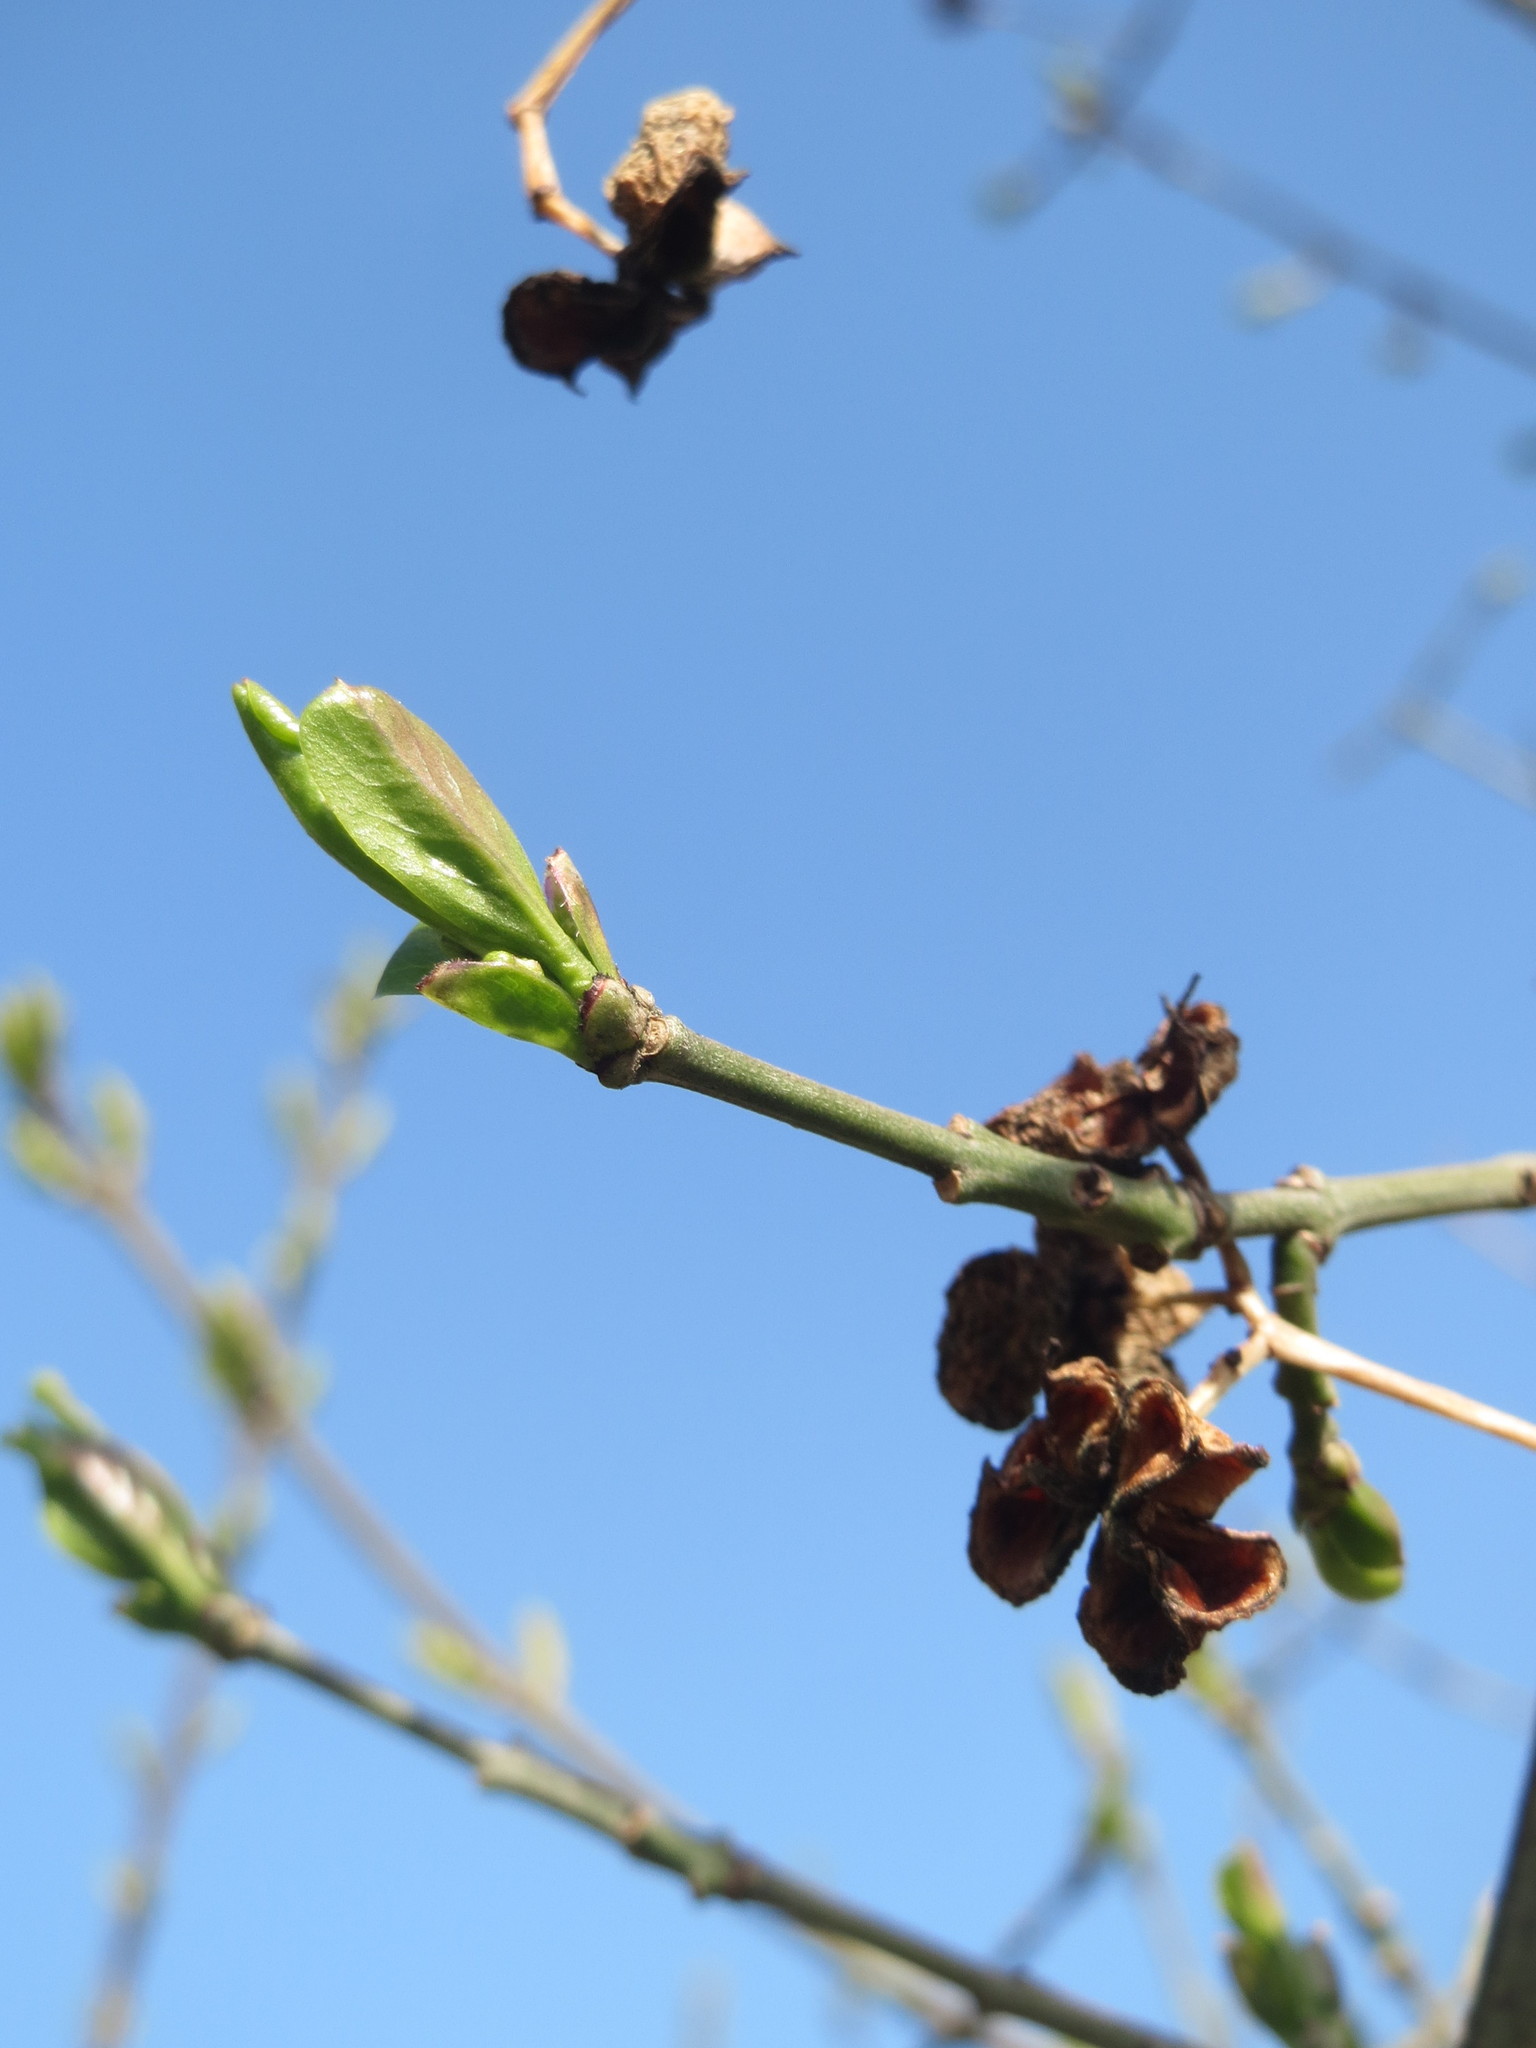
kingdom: Plantae
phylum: Tracheophyta
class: Magnoliopsida
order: Celastrales
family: Celastraceae
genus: Euonymus
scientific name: Euonymus europaeus
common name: Spindle
